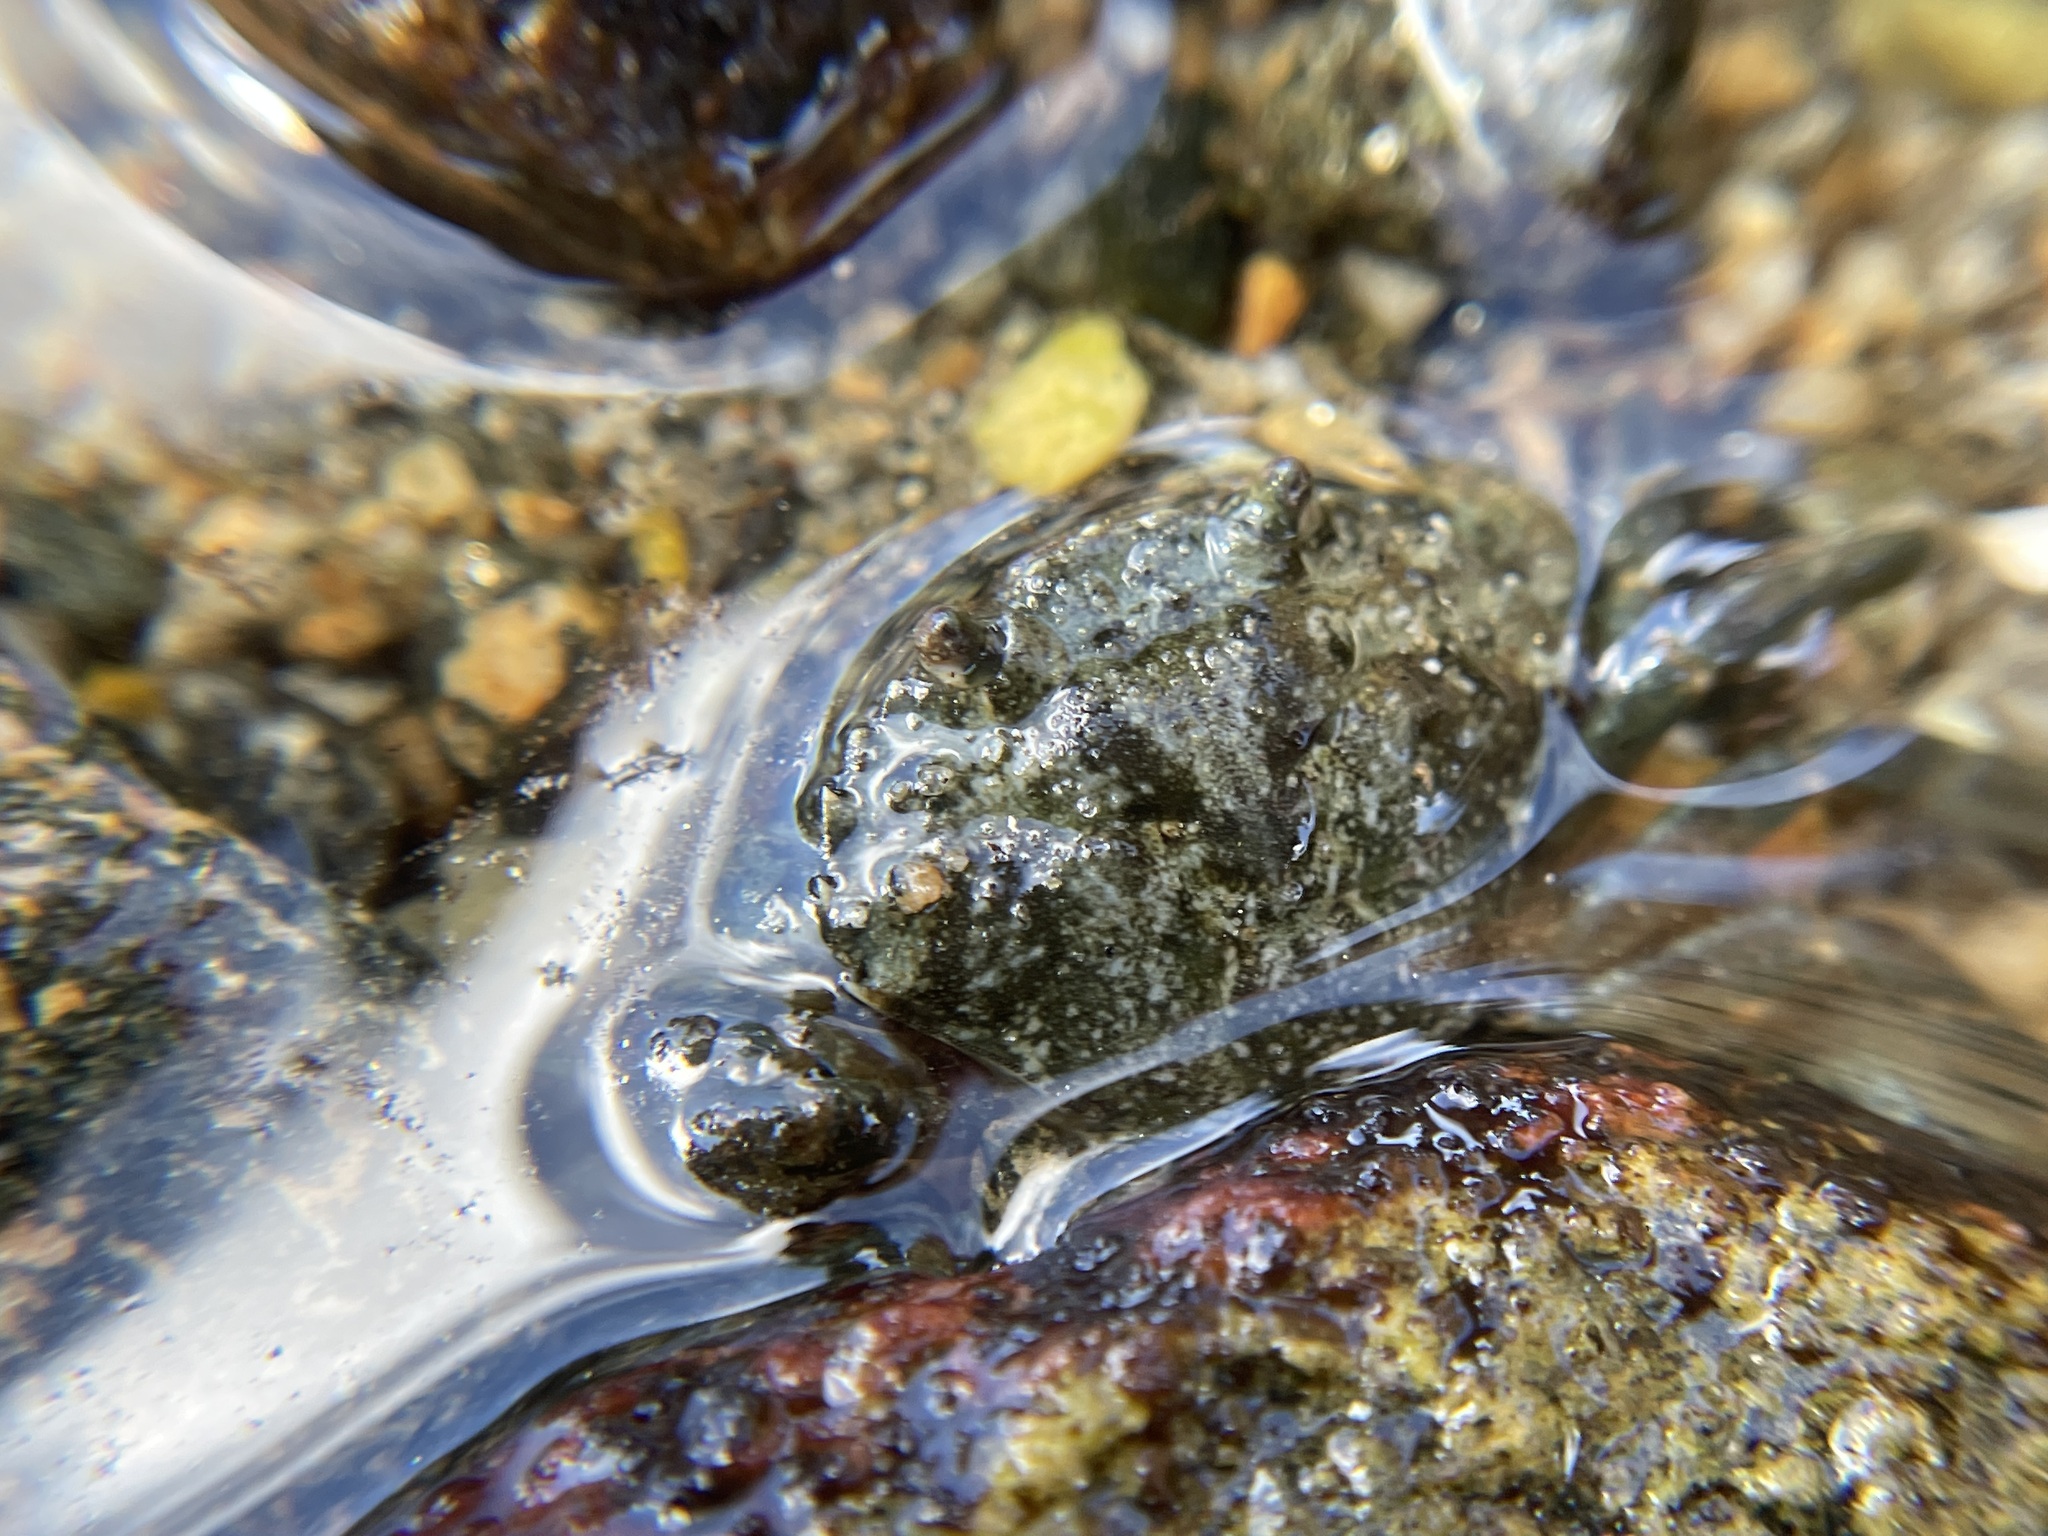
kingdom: Animalia
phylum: Arthropoda
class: Malacostraca
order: Decapoda
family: Carcinidae
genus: Carcinus
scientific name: Carcinus maenas
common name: European green crab
